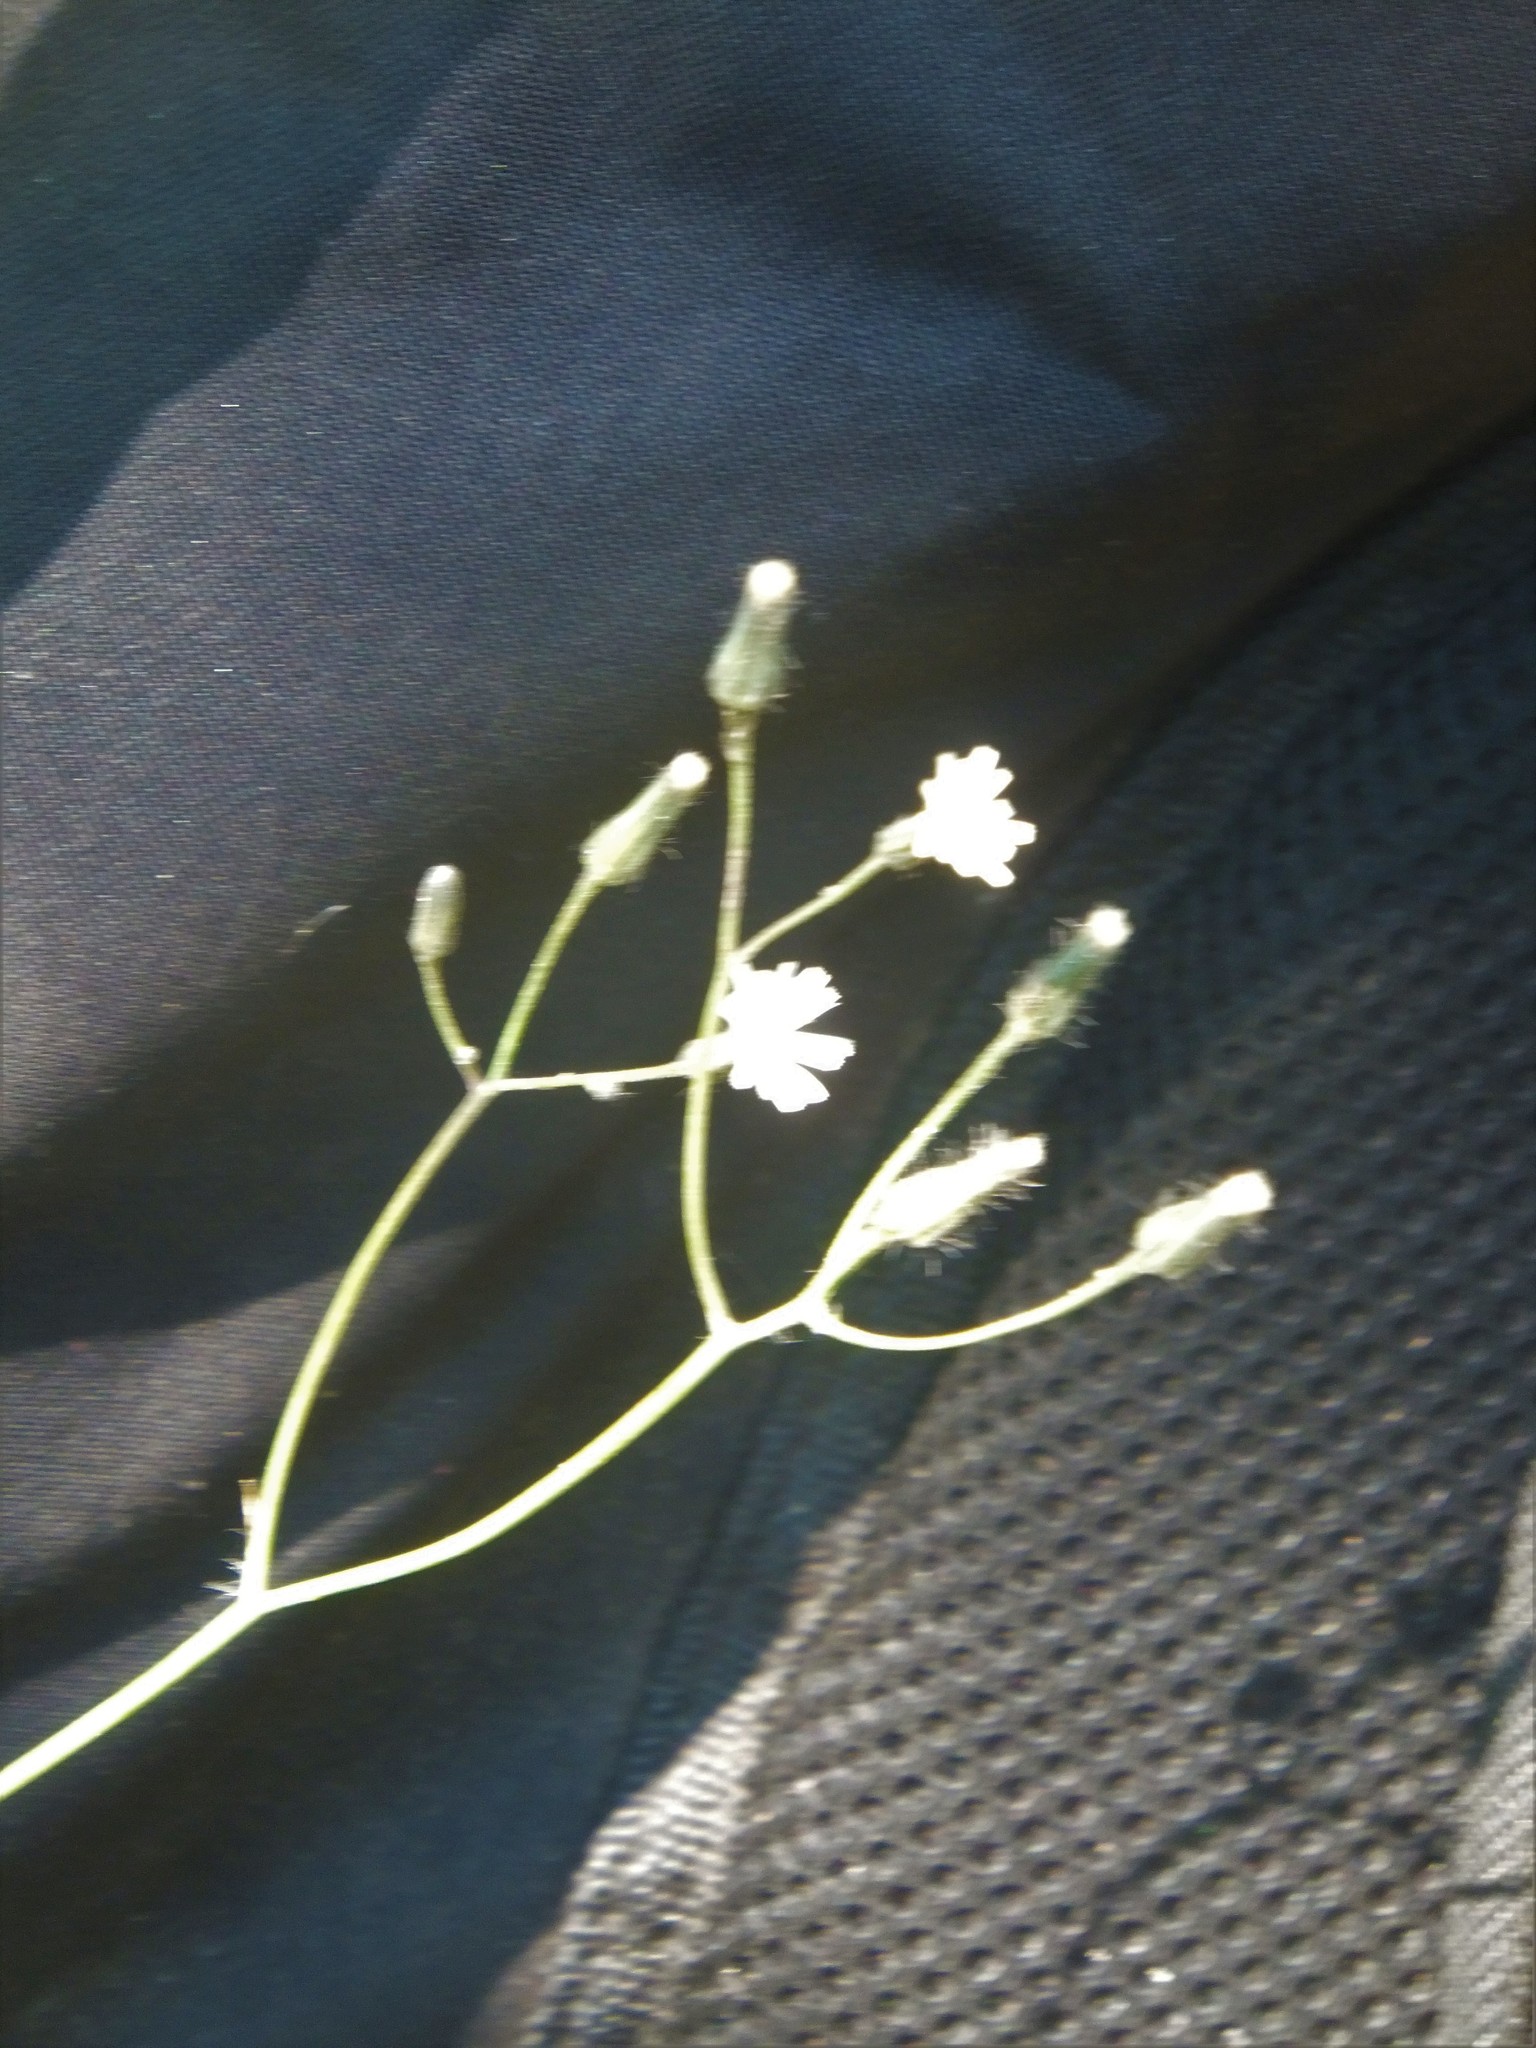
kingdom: Plantae
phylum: Tracheophyta
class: Magnoliopsida
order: Asterales
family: Asteraceae
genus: Hieracium
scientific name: Hieracium albiflorum
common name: White hawkweed
